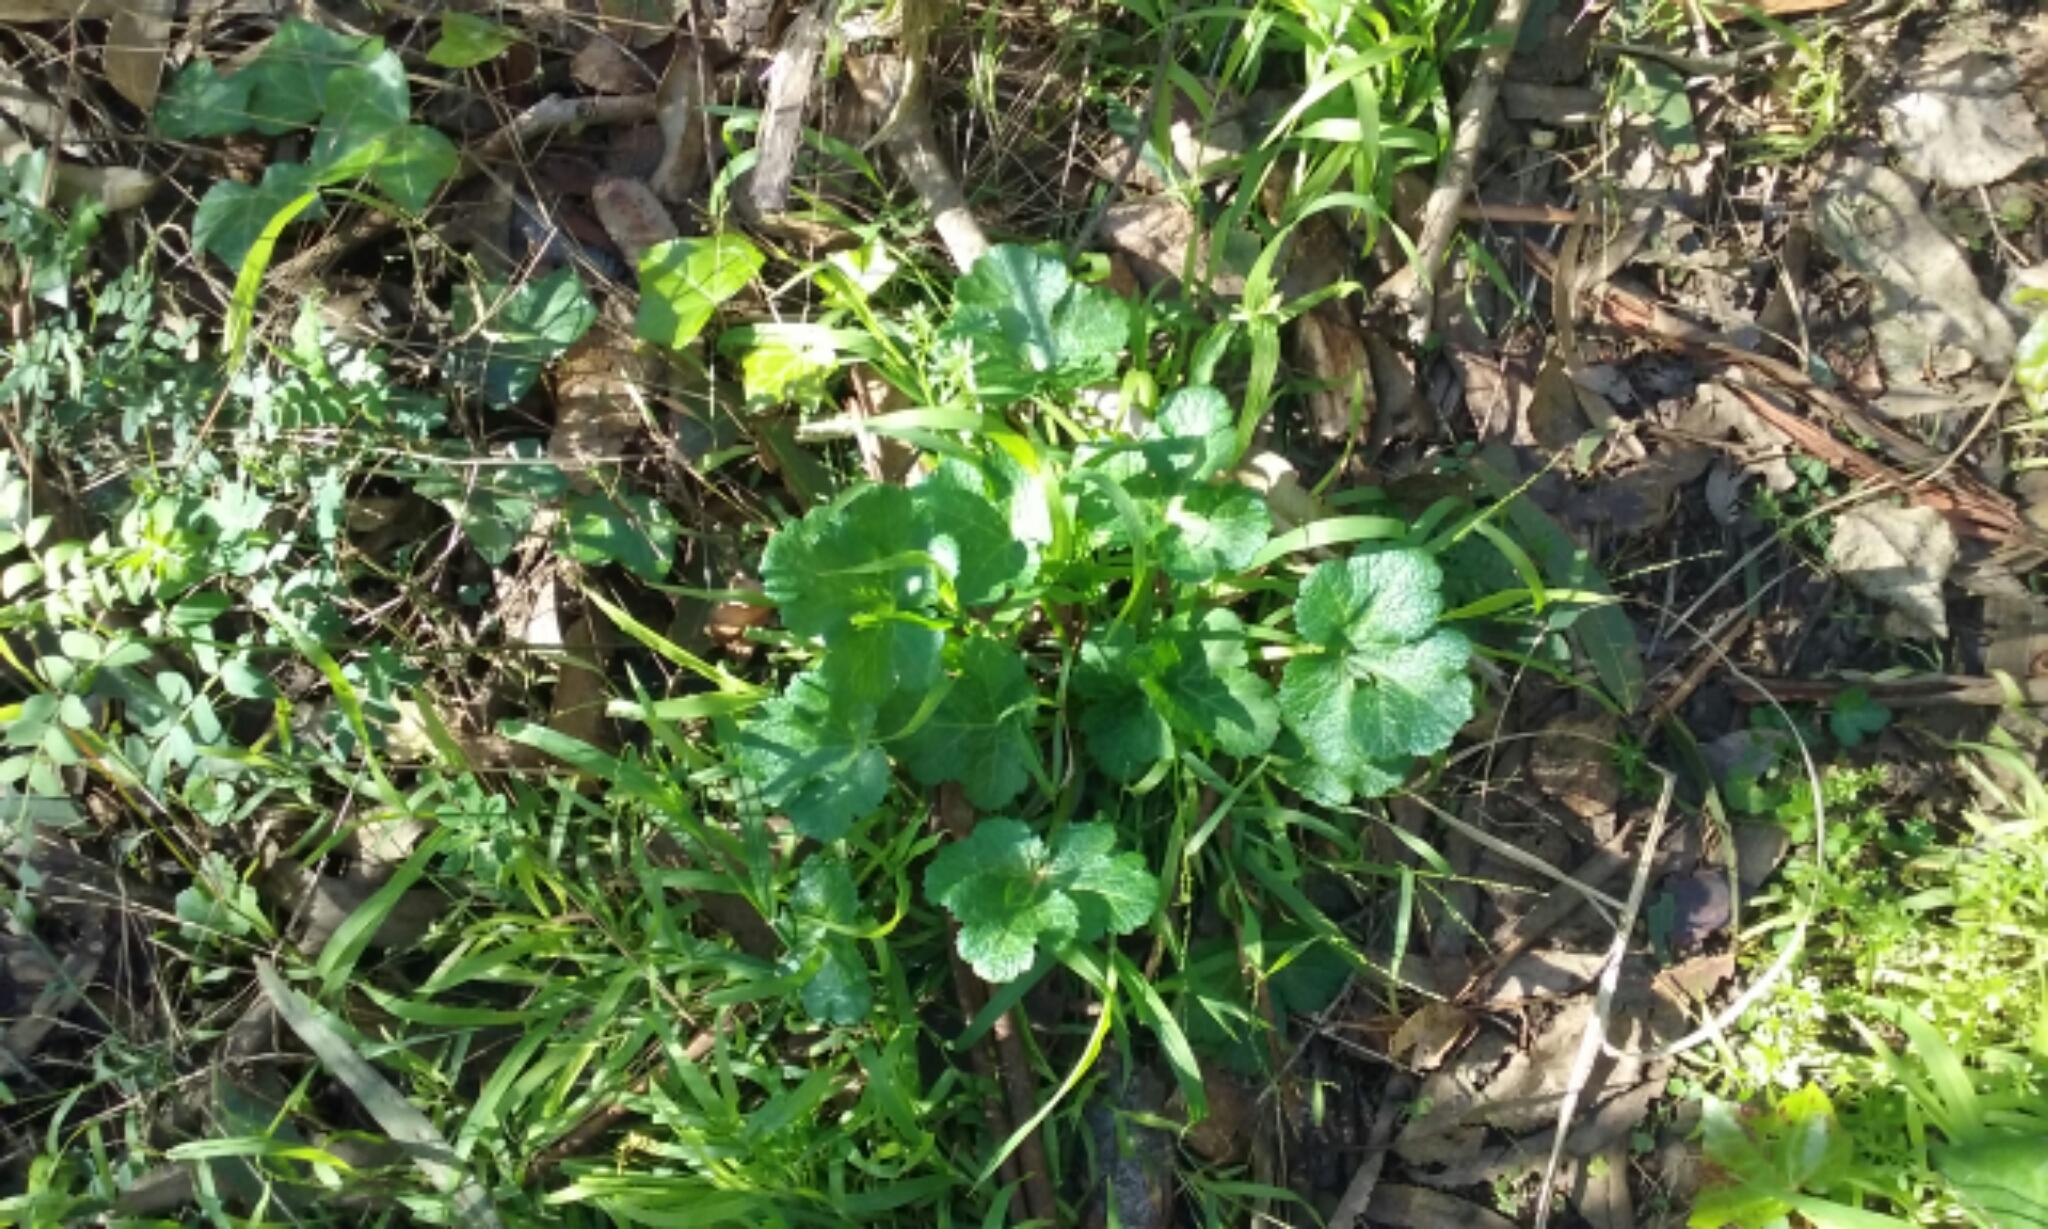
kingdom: Plantae
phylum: Tracheophyta
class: Magnoliopsida
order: Apiales
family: Apiaceae
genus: Sanicula
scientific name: Sanicula crassicaulis
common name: Western snakeroot
